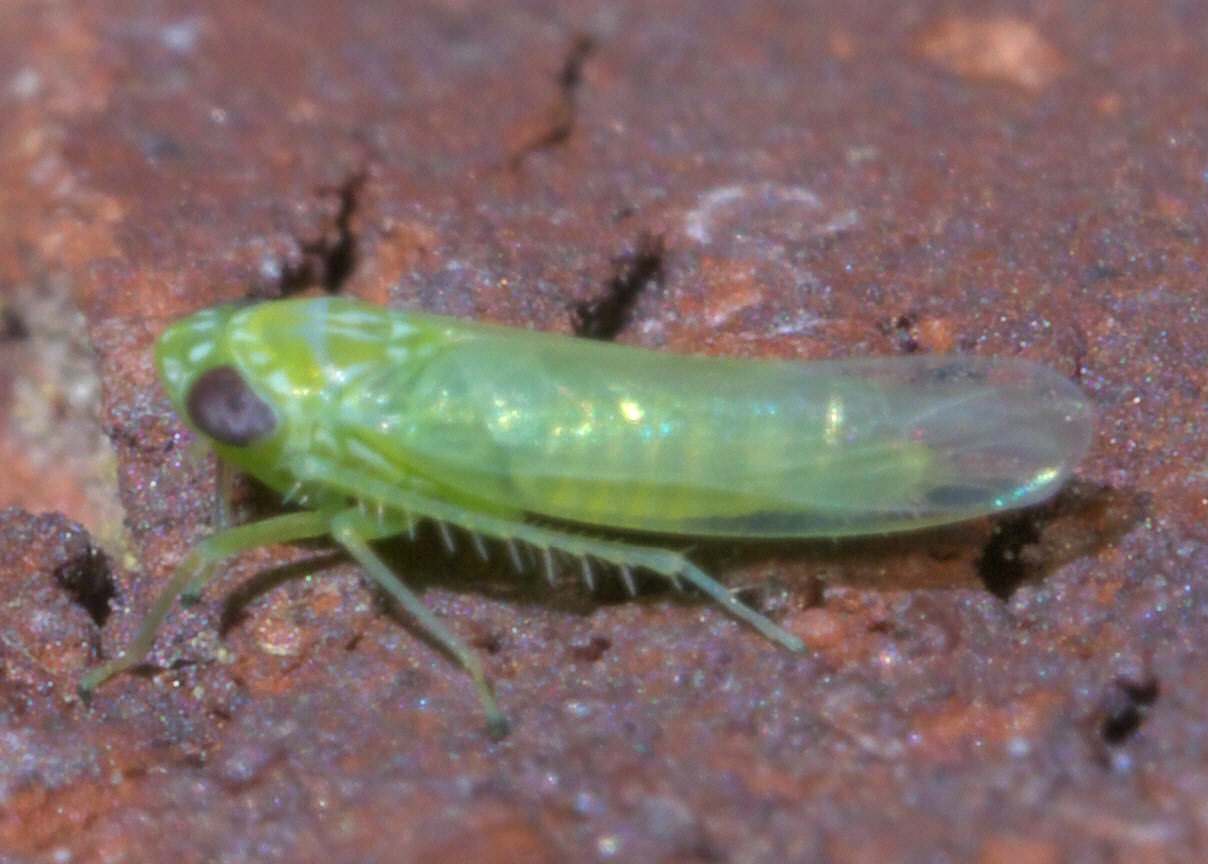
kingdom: Animalia
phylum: Arthropoda
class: Insecta
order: Hemiptera
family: Cicadellidae
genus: Empoasca
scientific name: Empoasca fabae
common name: Potato leafhopper
